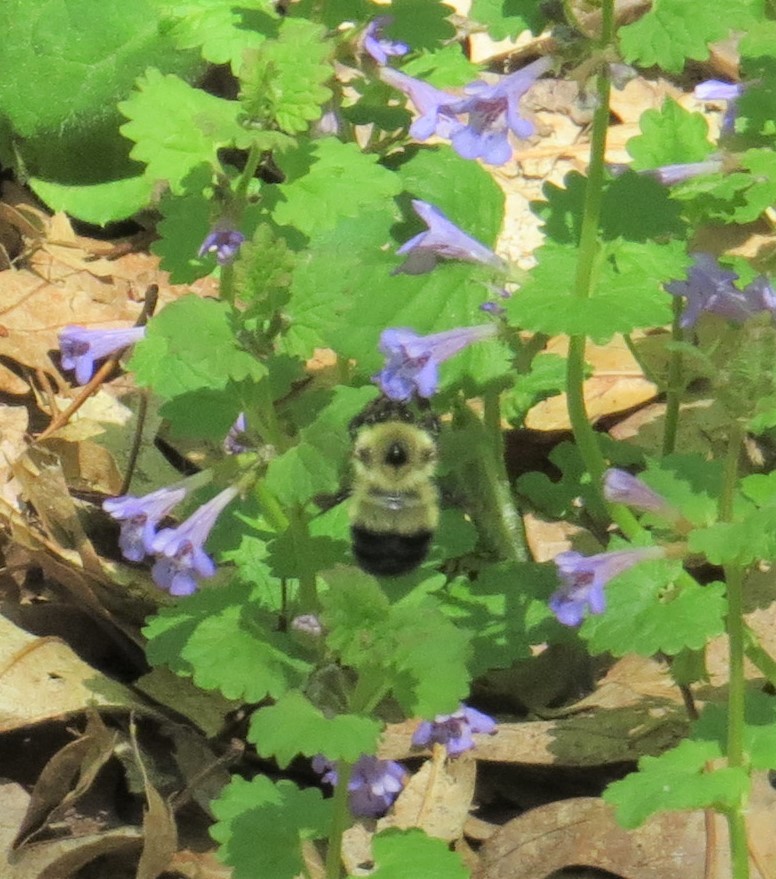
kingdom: Animalia
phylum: Arthropoda
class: Insecta
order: Hymenoptera
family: Apidae
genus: Pyrobombus
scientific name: Pyrobombus
